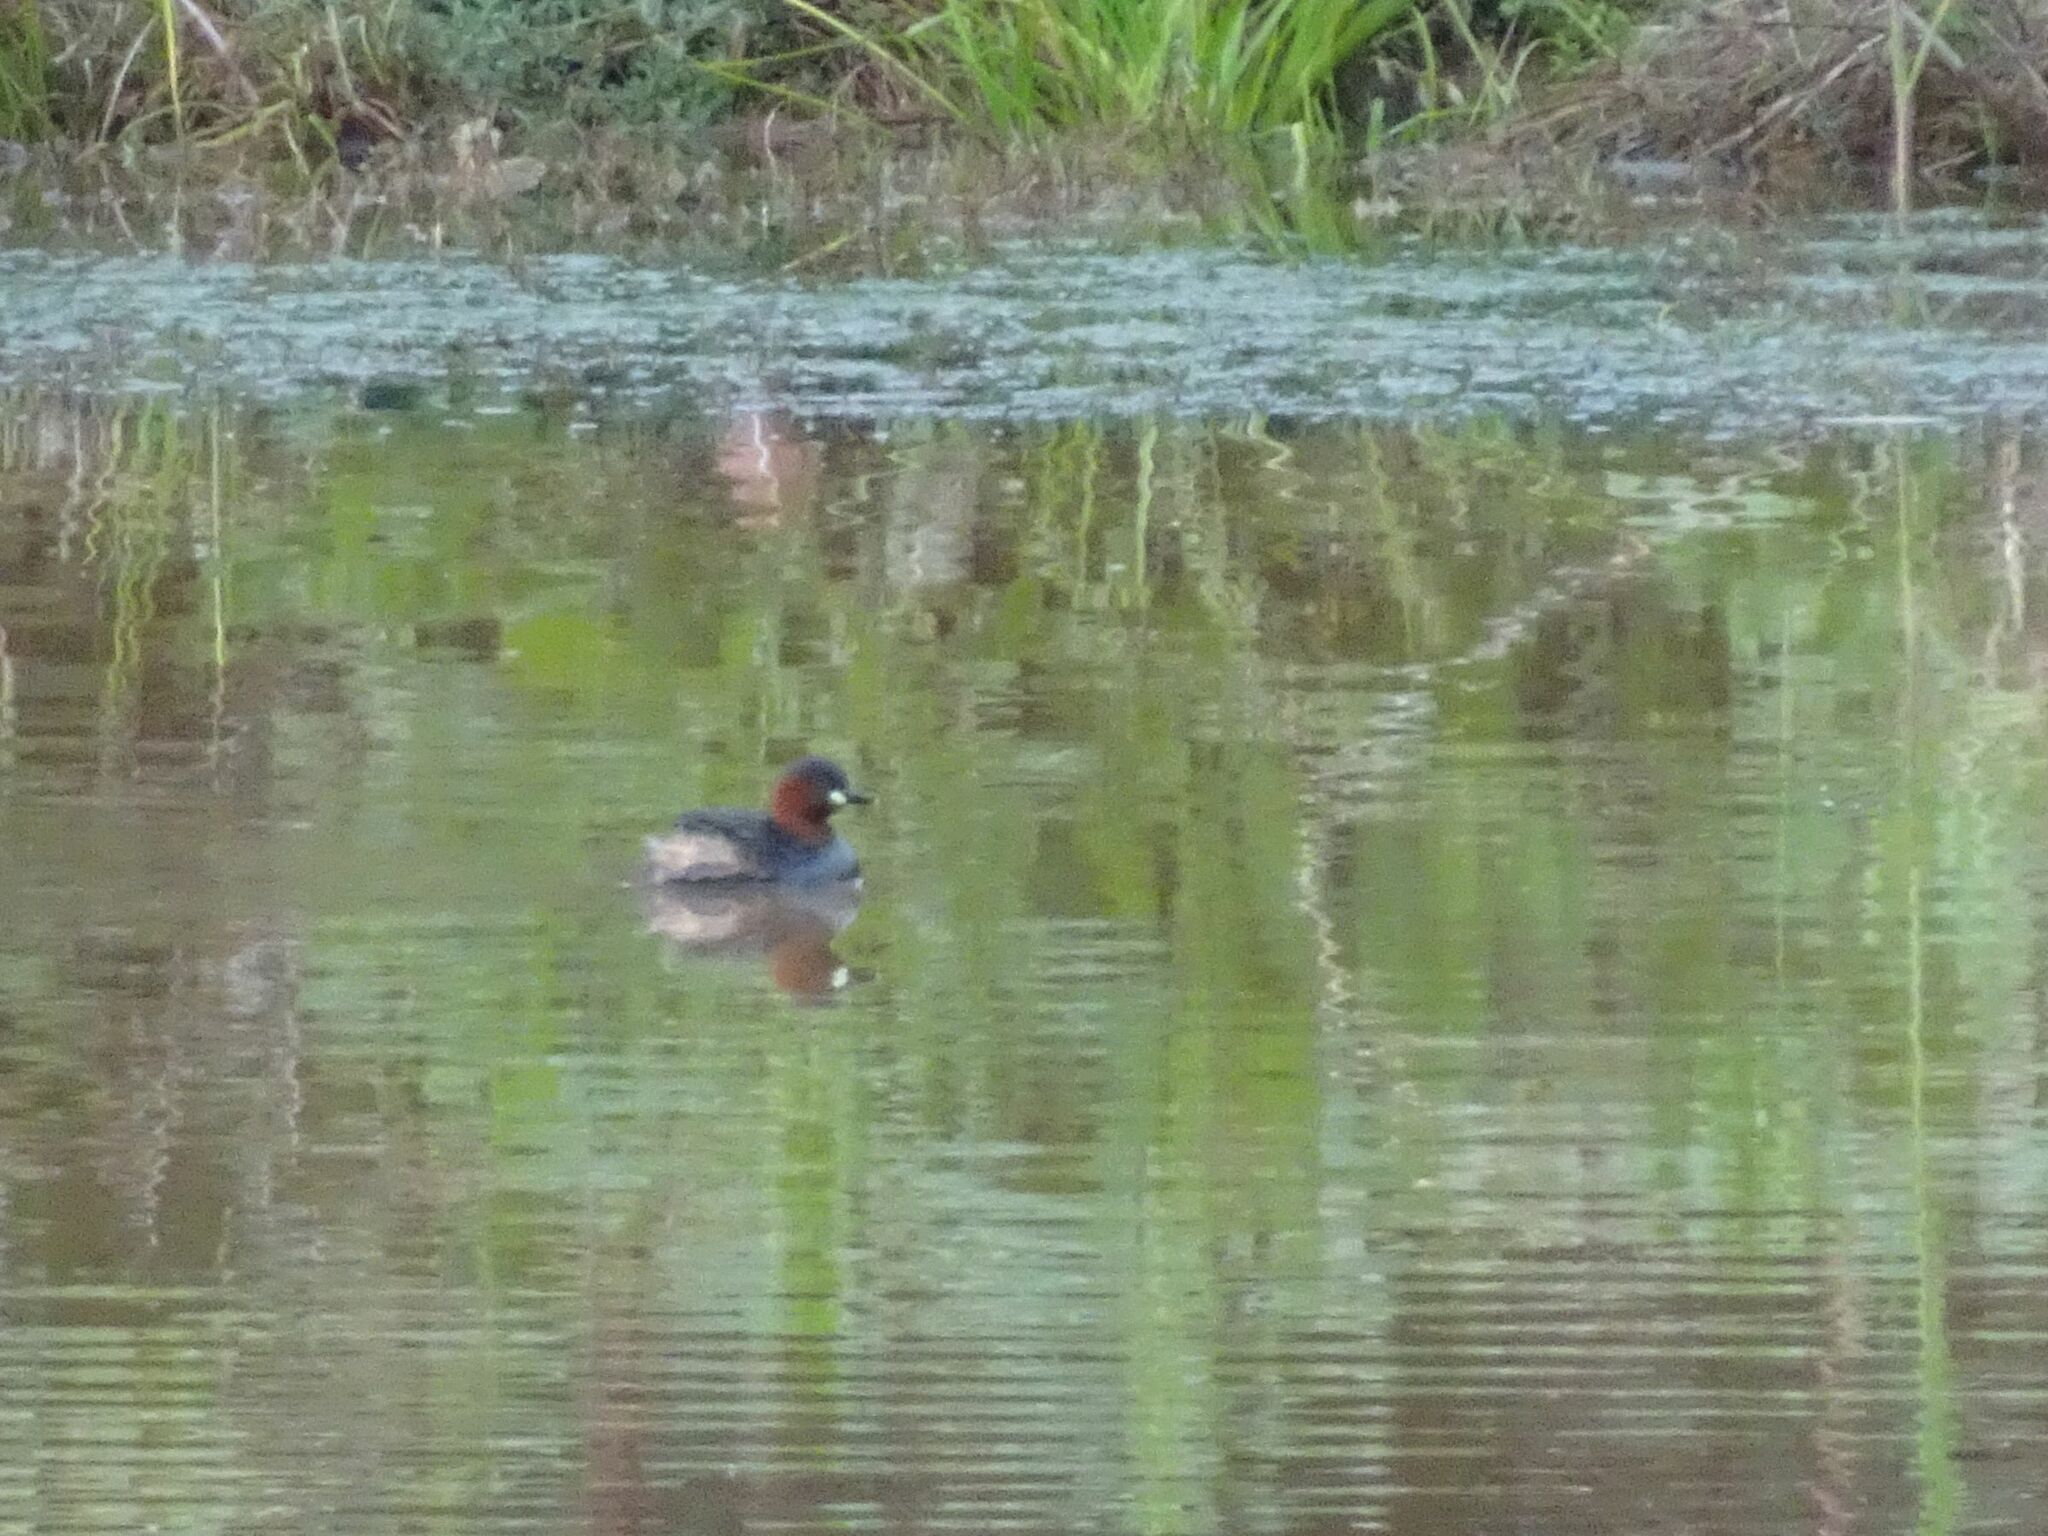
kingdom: Animalia
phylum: Chordata
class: Aves
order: Podicipediformes
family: Podicipedidae
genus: Tachybaptus
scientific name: Tachybaptus ruficollis
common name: Little grebe
